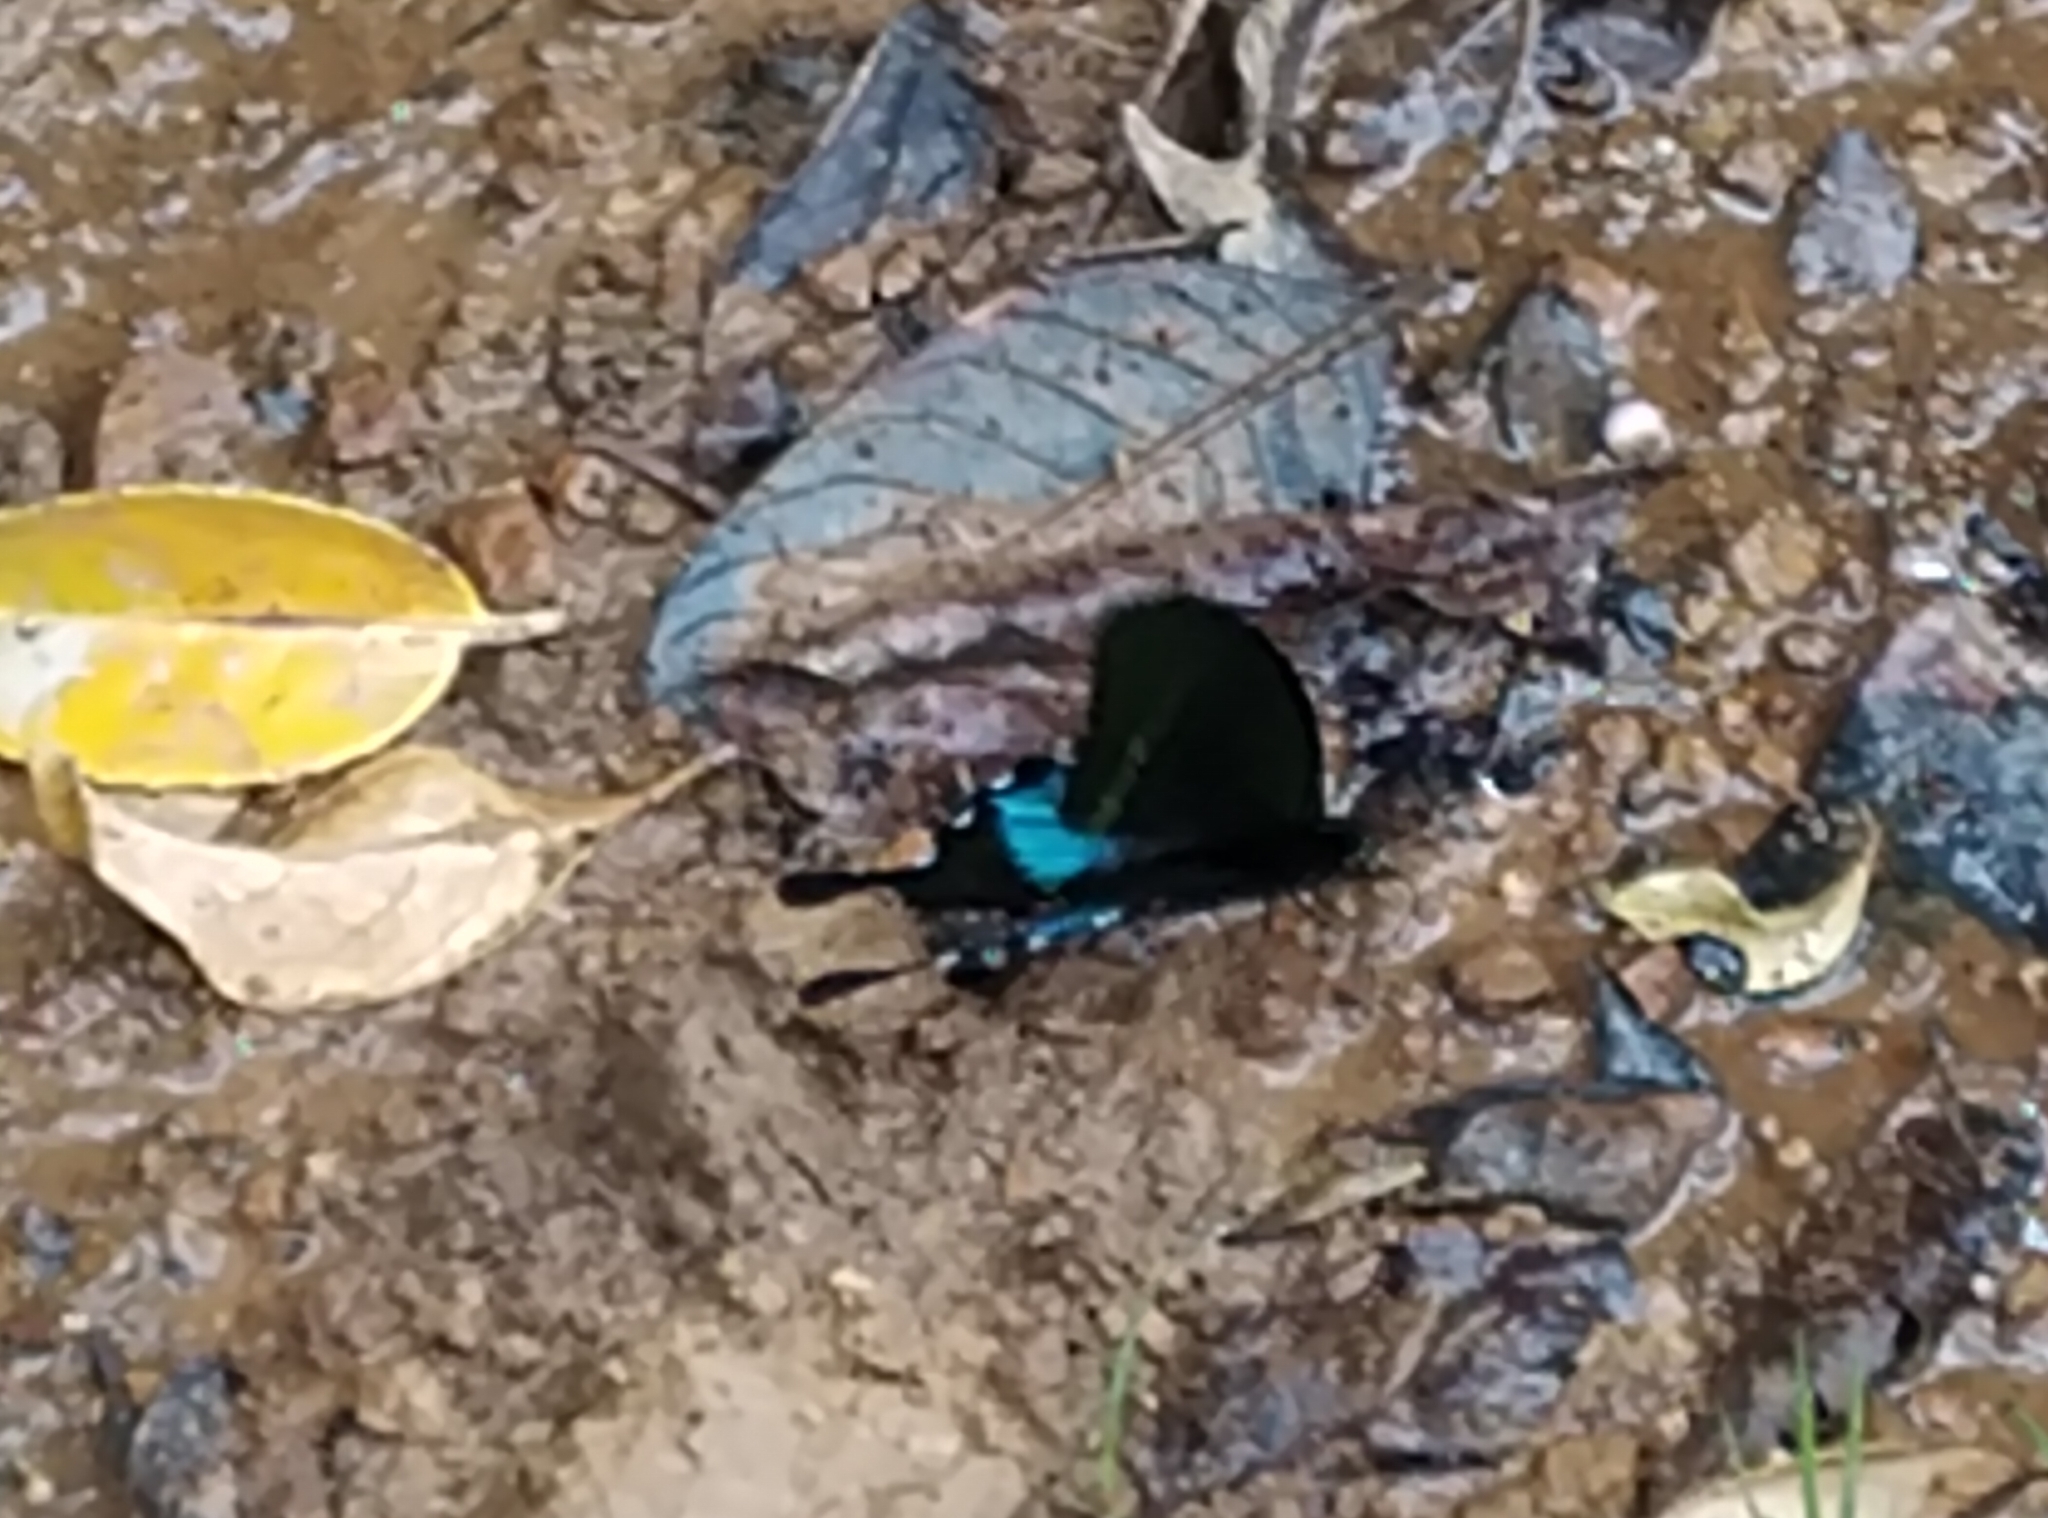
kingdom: Animalia
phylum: Arthropoda
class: Insecta
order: Lepidoptera
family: Papilionidae
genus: Papilio
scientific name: Papilio paris
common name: Paris peacock
